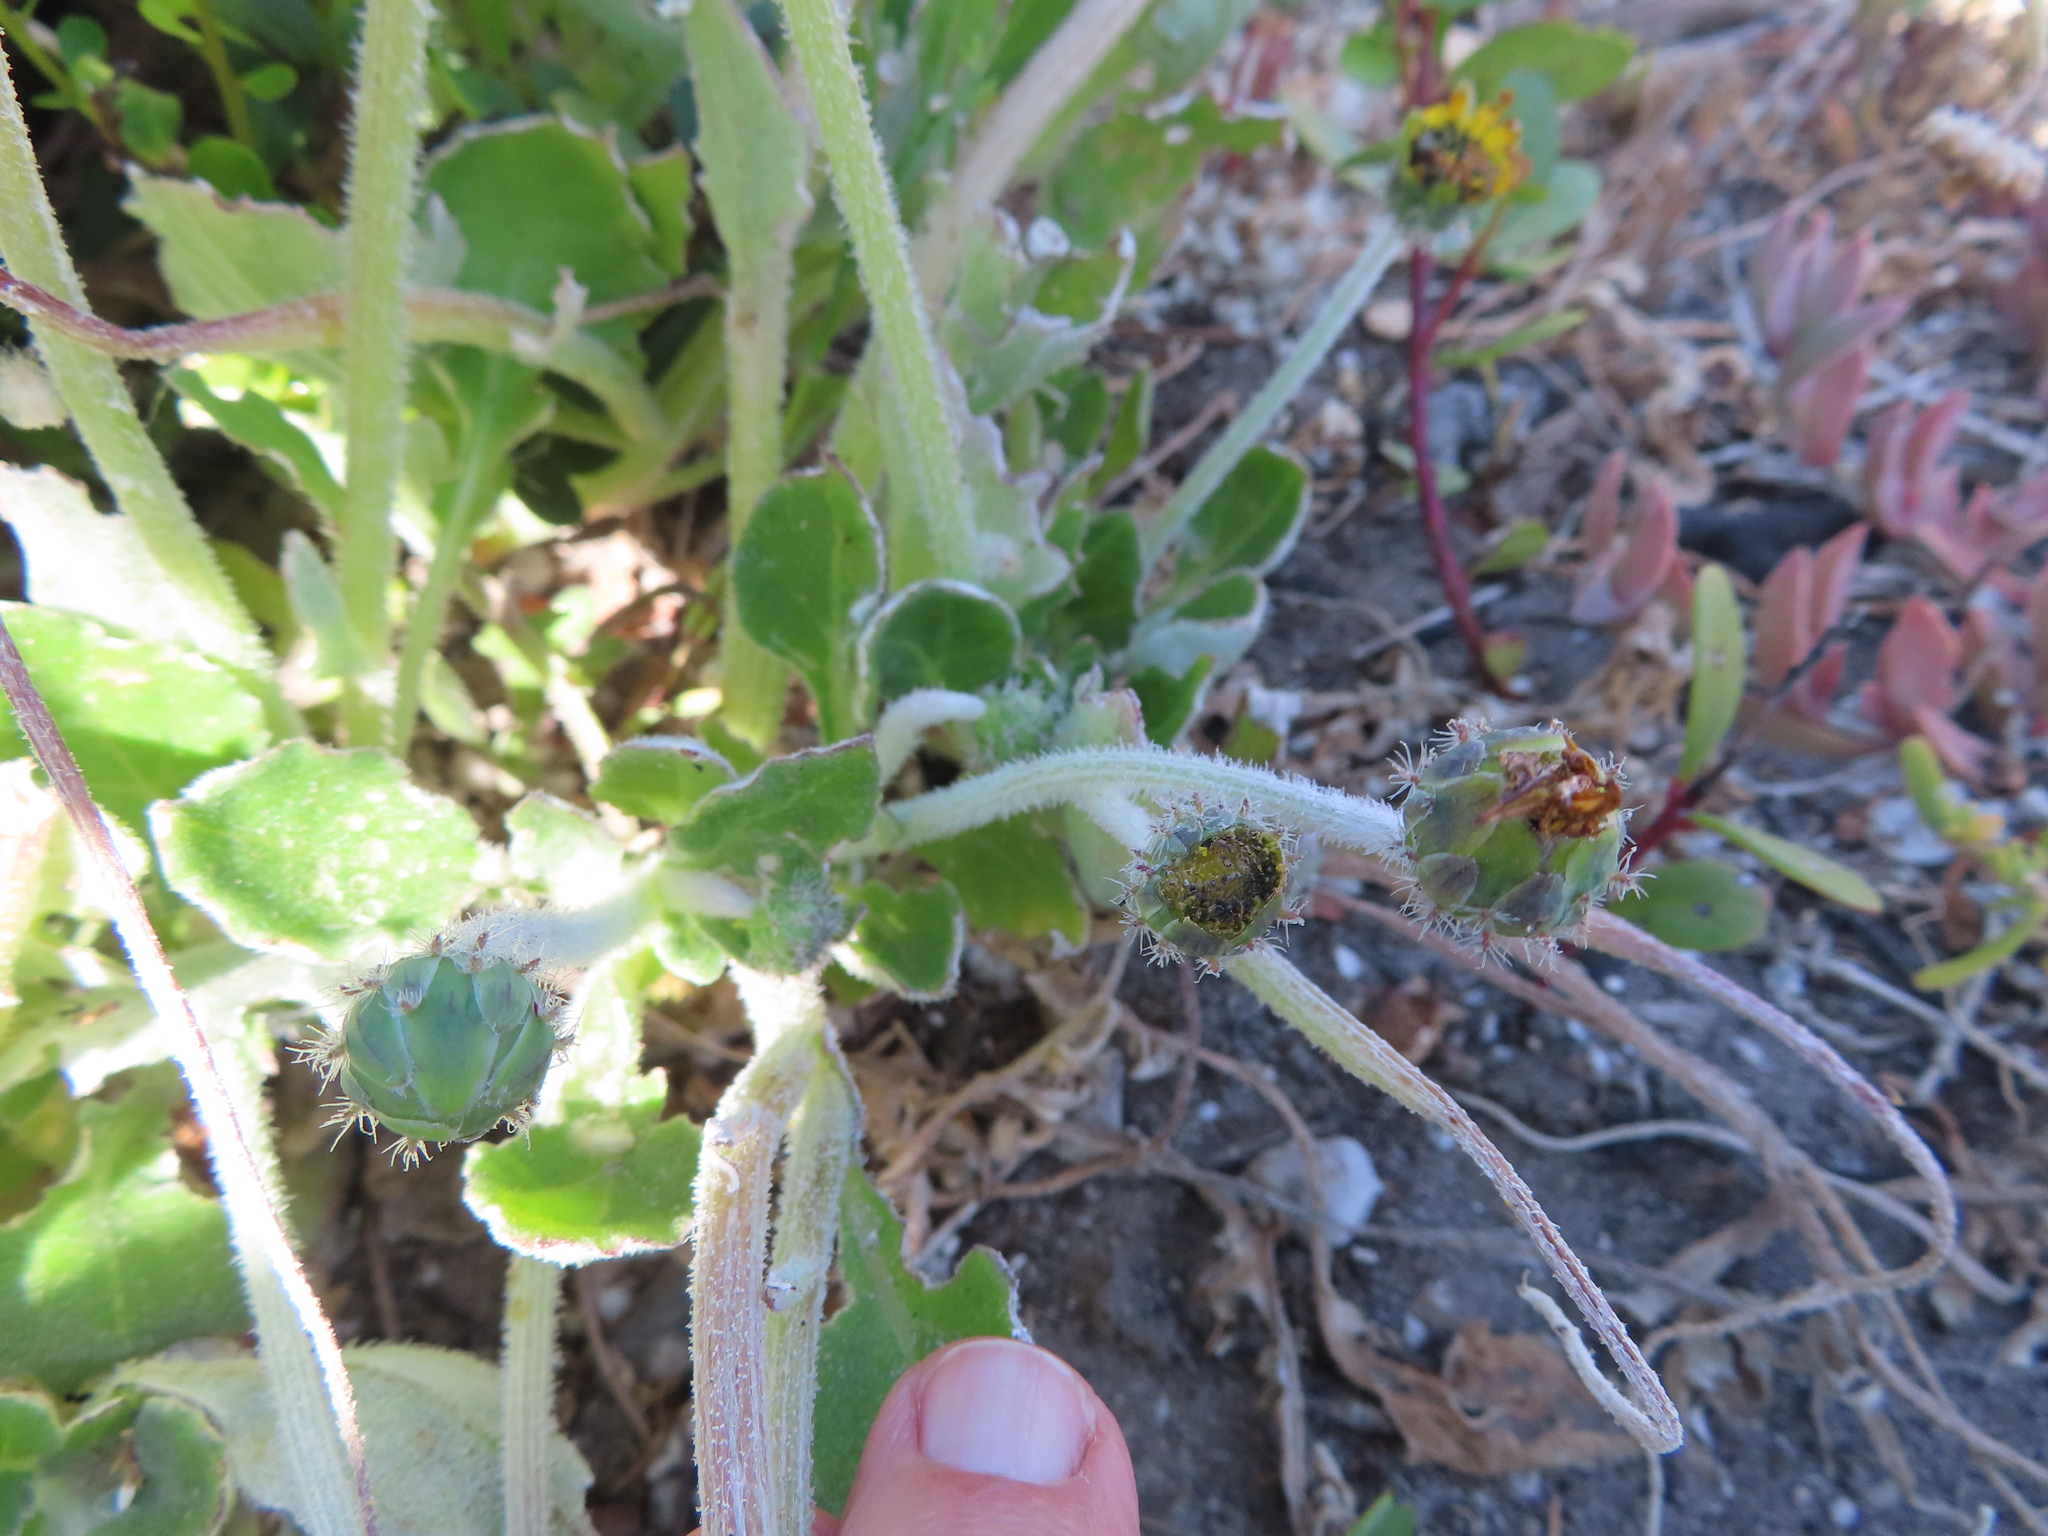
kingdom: Plantae
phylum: Tracheophyta
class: Magnoliopsida
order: Asterales
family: Asteraceae
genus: Arctotheca
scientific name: Arctotheca calendula
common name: Capeweed
